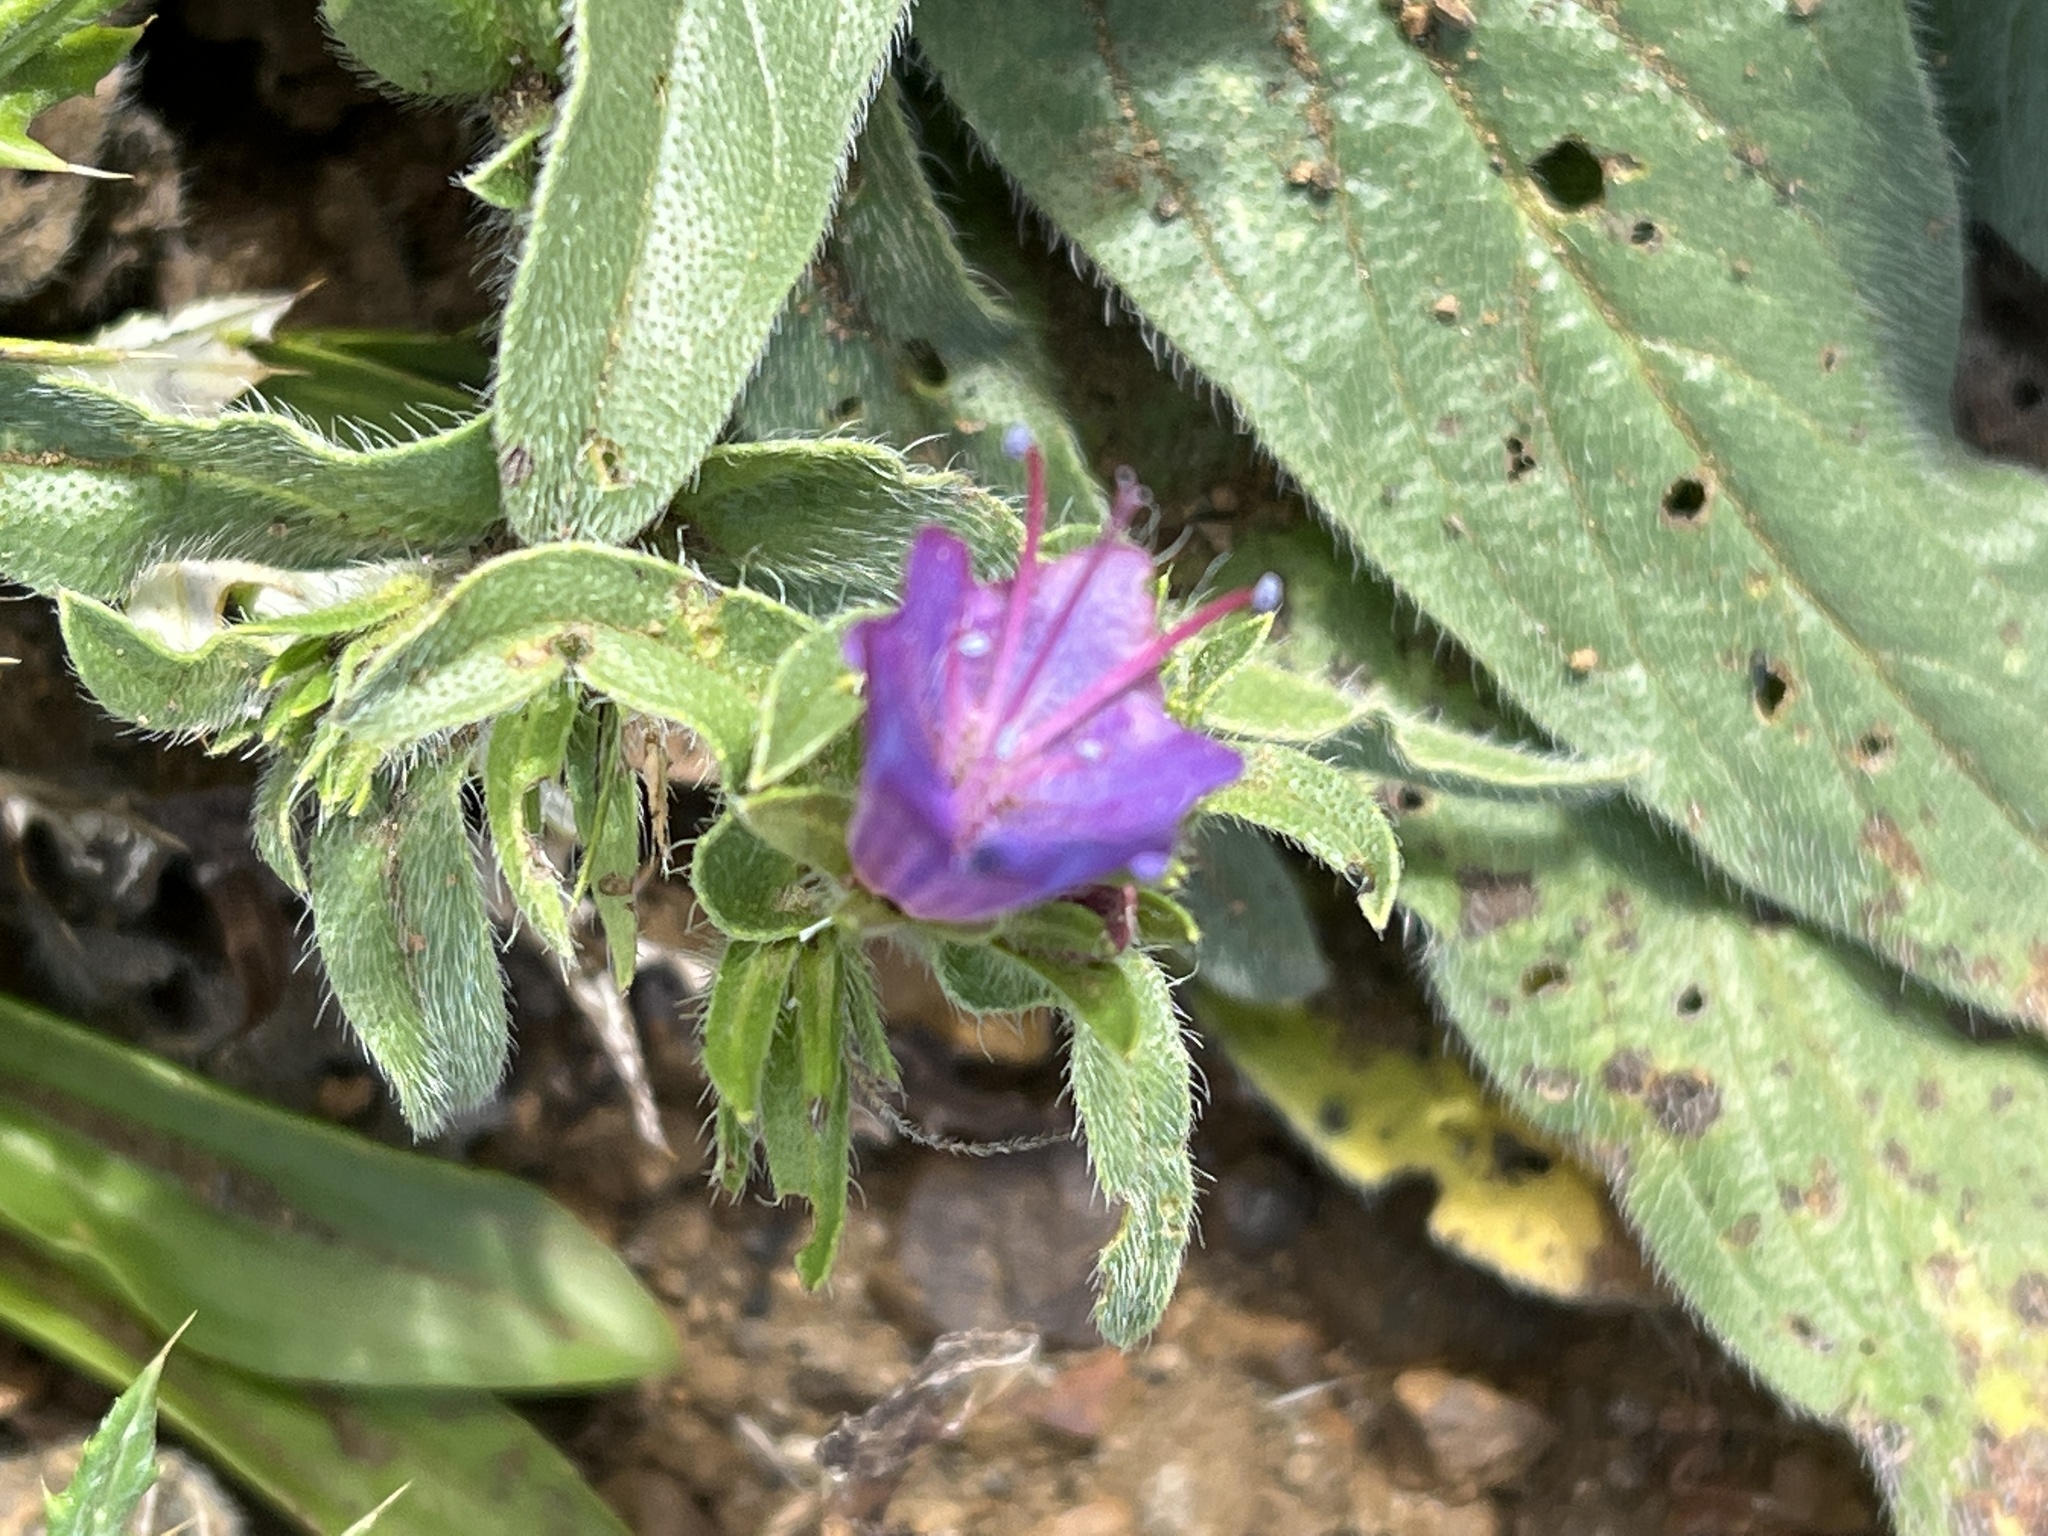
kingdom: Plantae
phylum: Tracheophyta
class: Magnoliopsida
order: Boraginales
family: Boraginaceae
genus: Echium
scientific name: Echium plantagineum
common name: Purple viper's-bugloss
